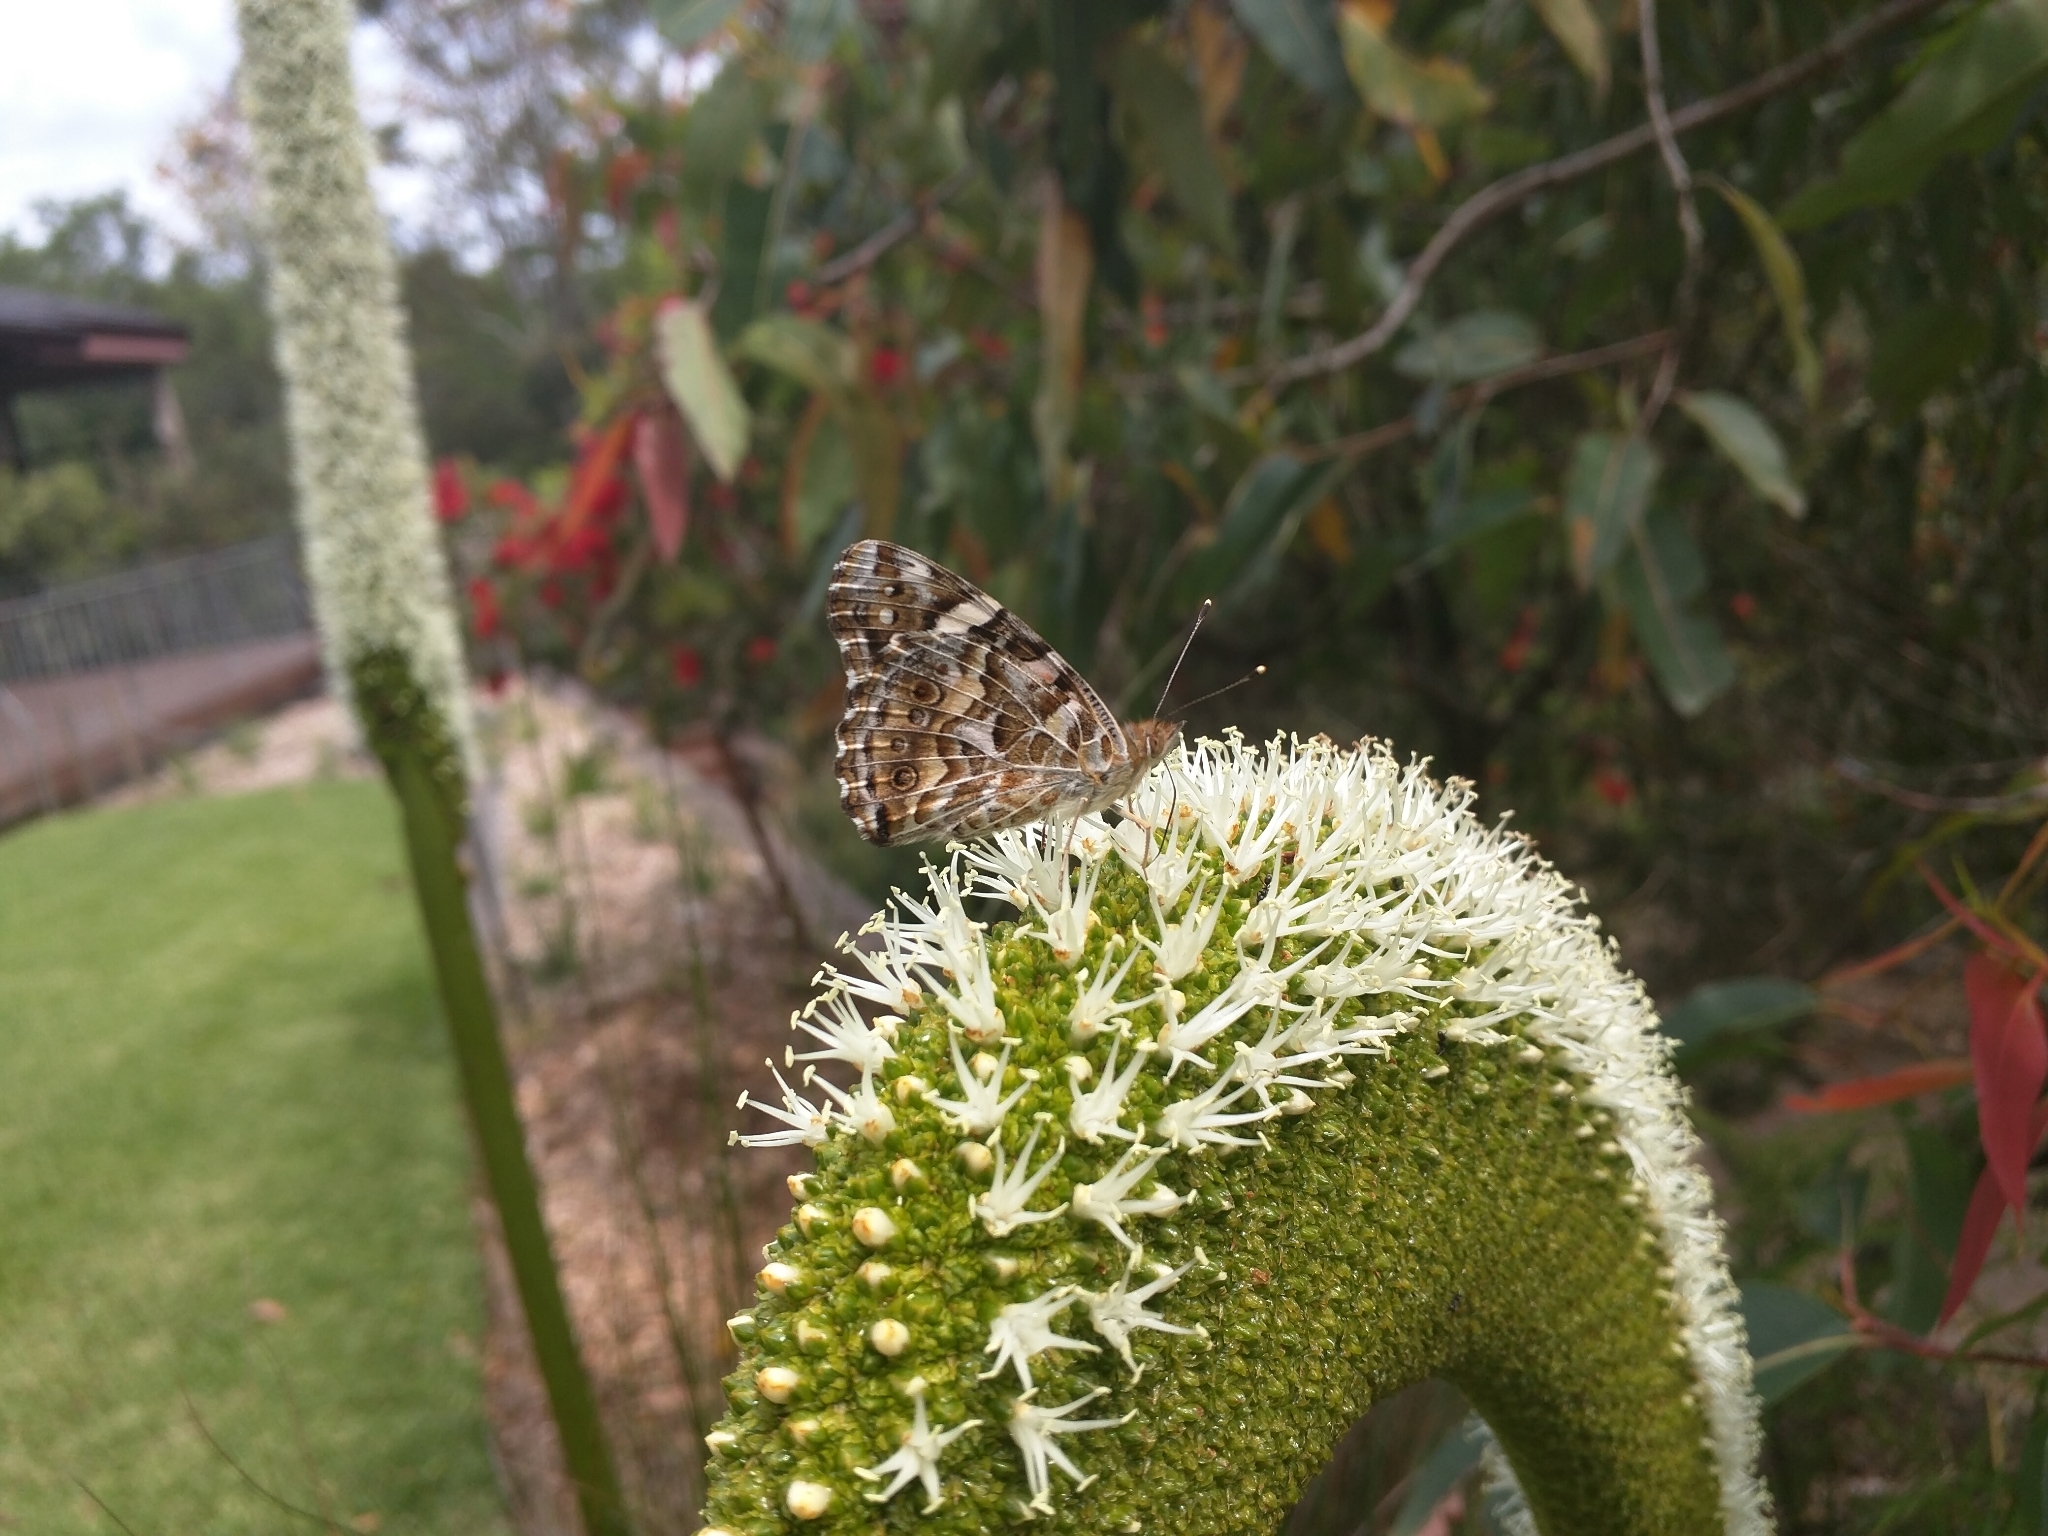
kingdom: Animalia
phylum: Arthropoda
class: Insecta
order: Lepidoptera
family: Nymphalidae
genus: Vanessa
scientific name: Vanessa kershawi
